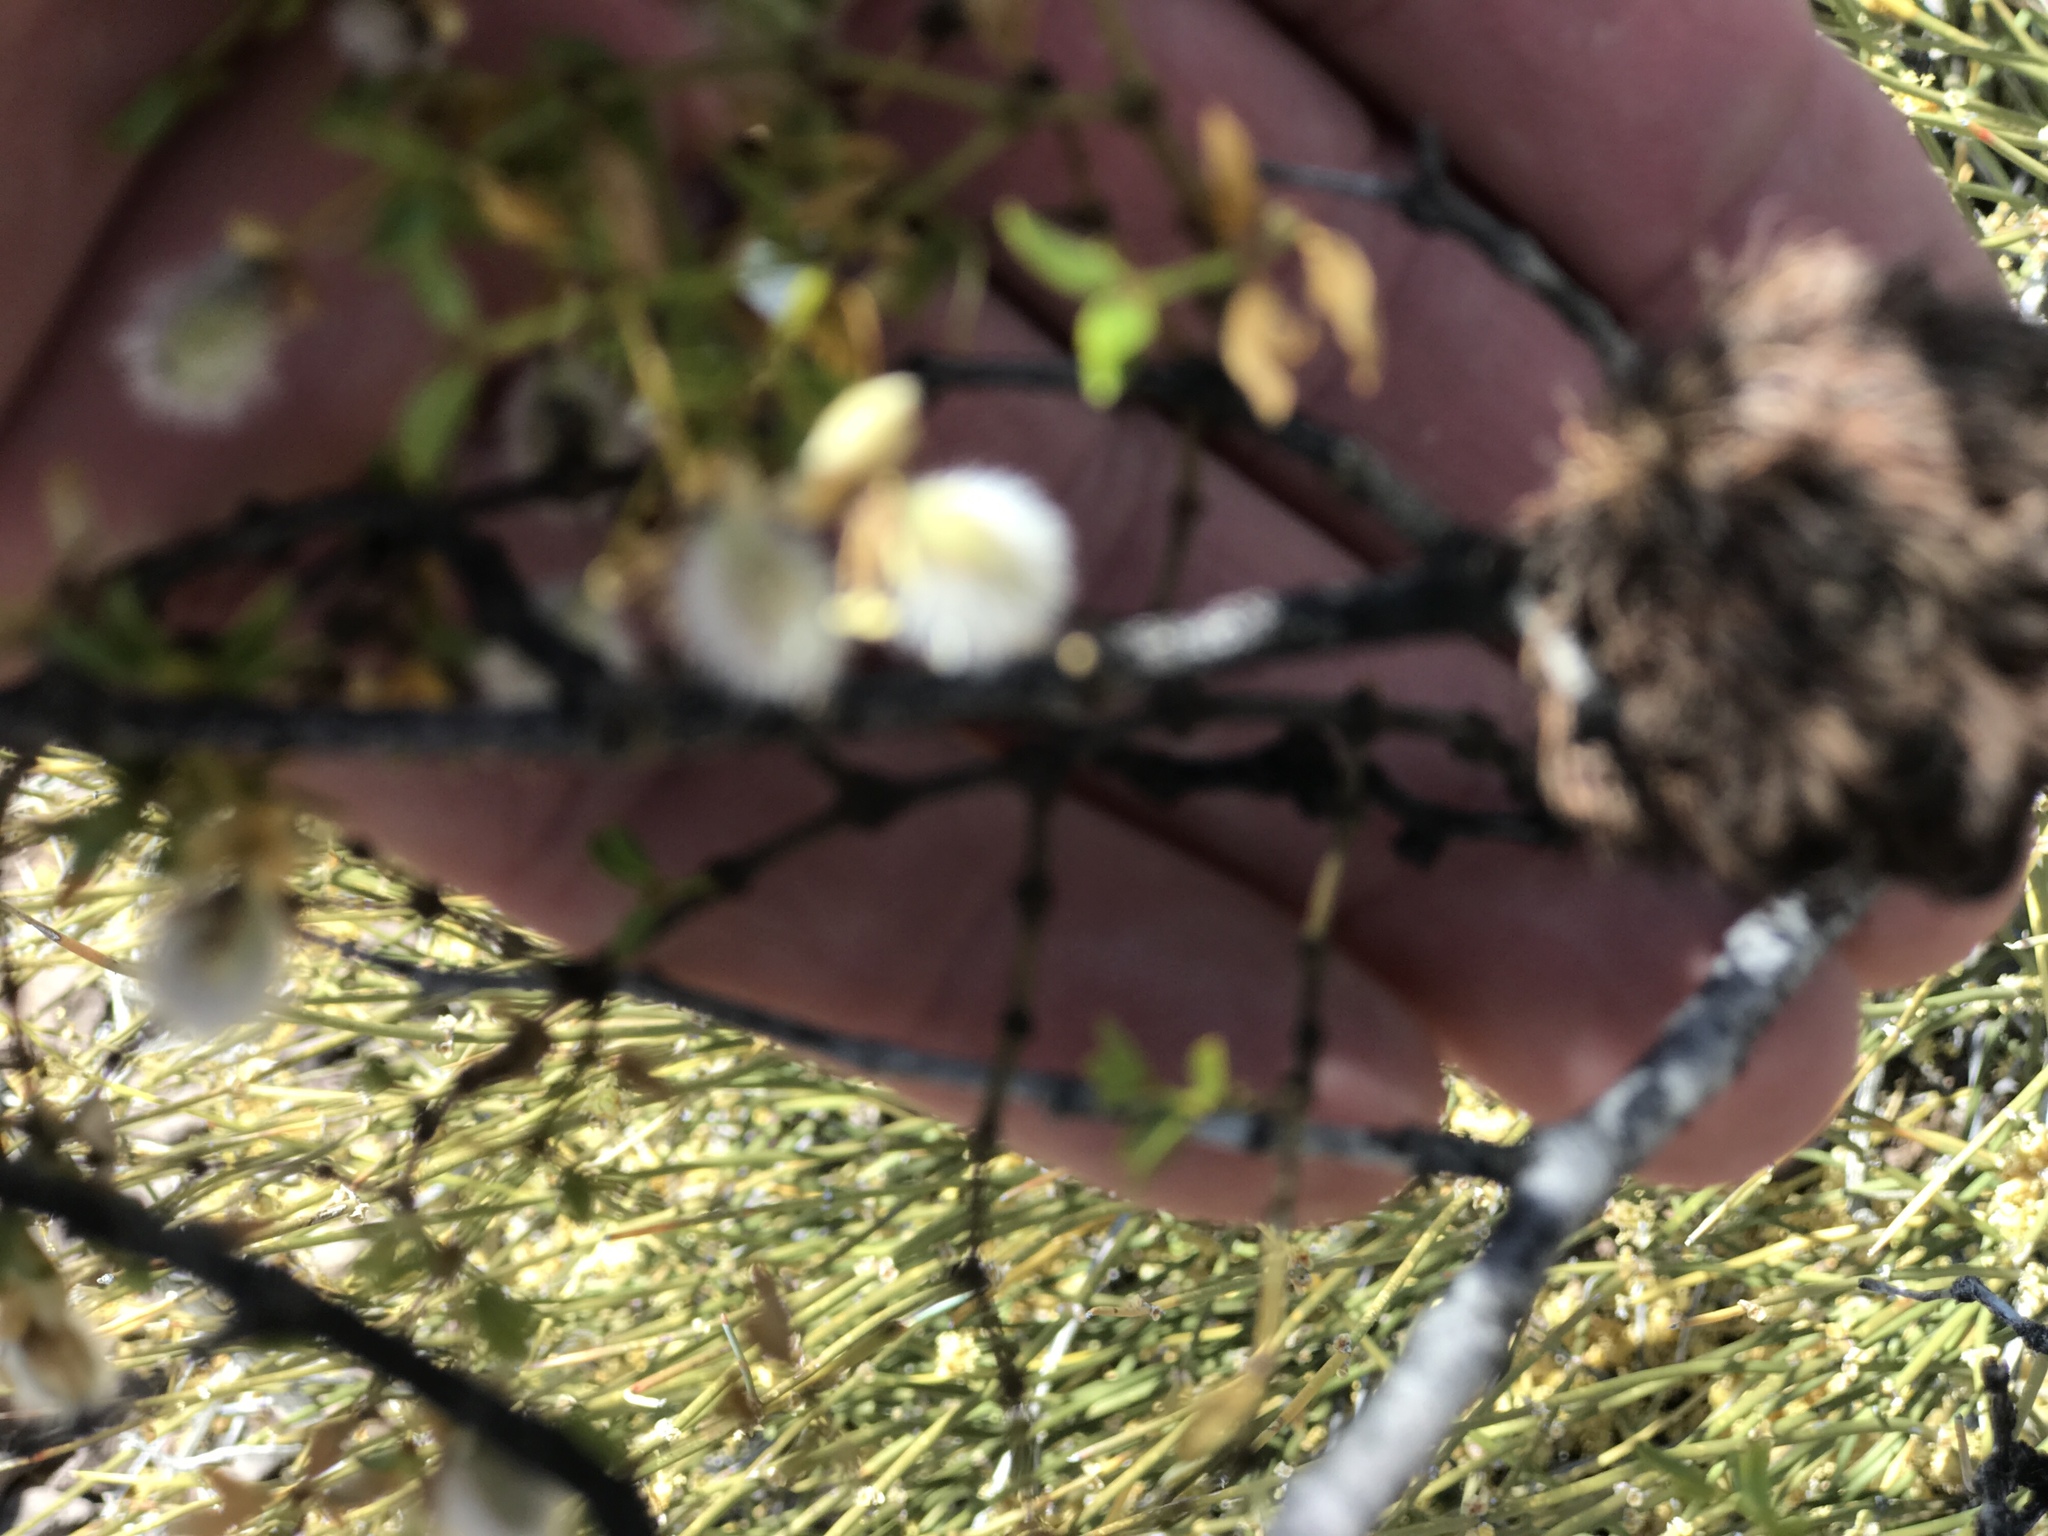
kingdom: Animalia
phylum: Arthropoda
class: Insecta
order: Diptera
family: Cecidomyiidae
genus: Asphondylia
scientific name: Asphondylia auripila
